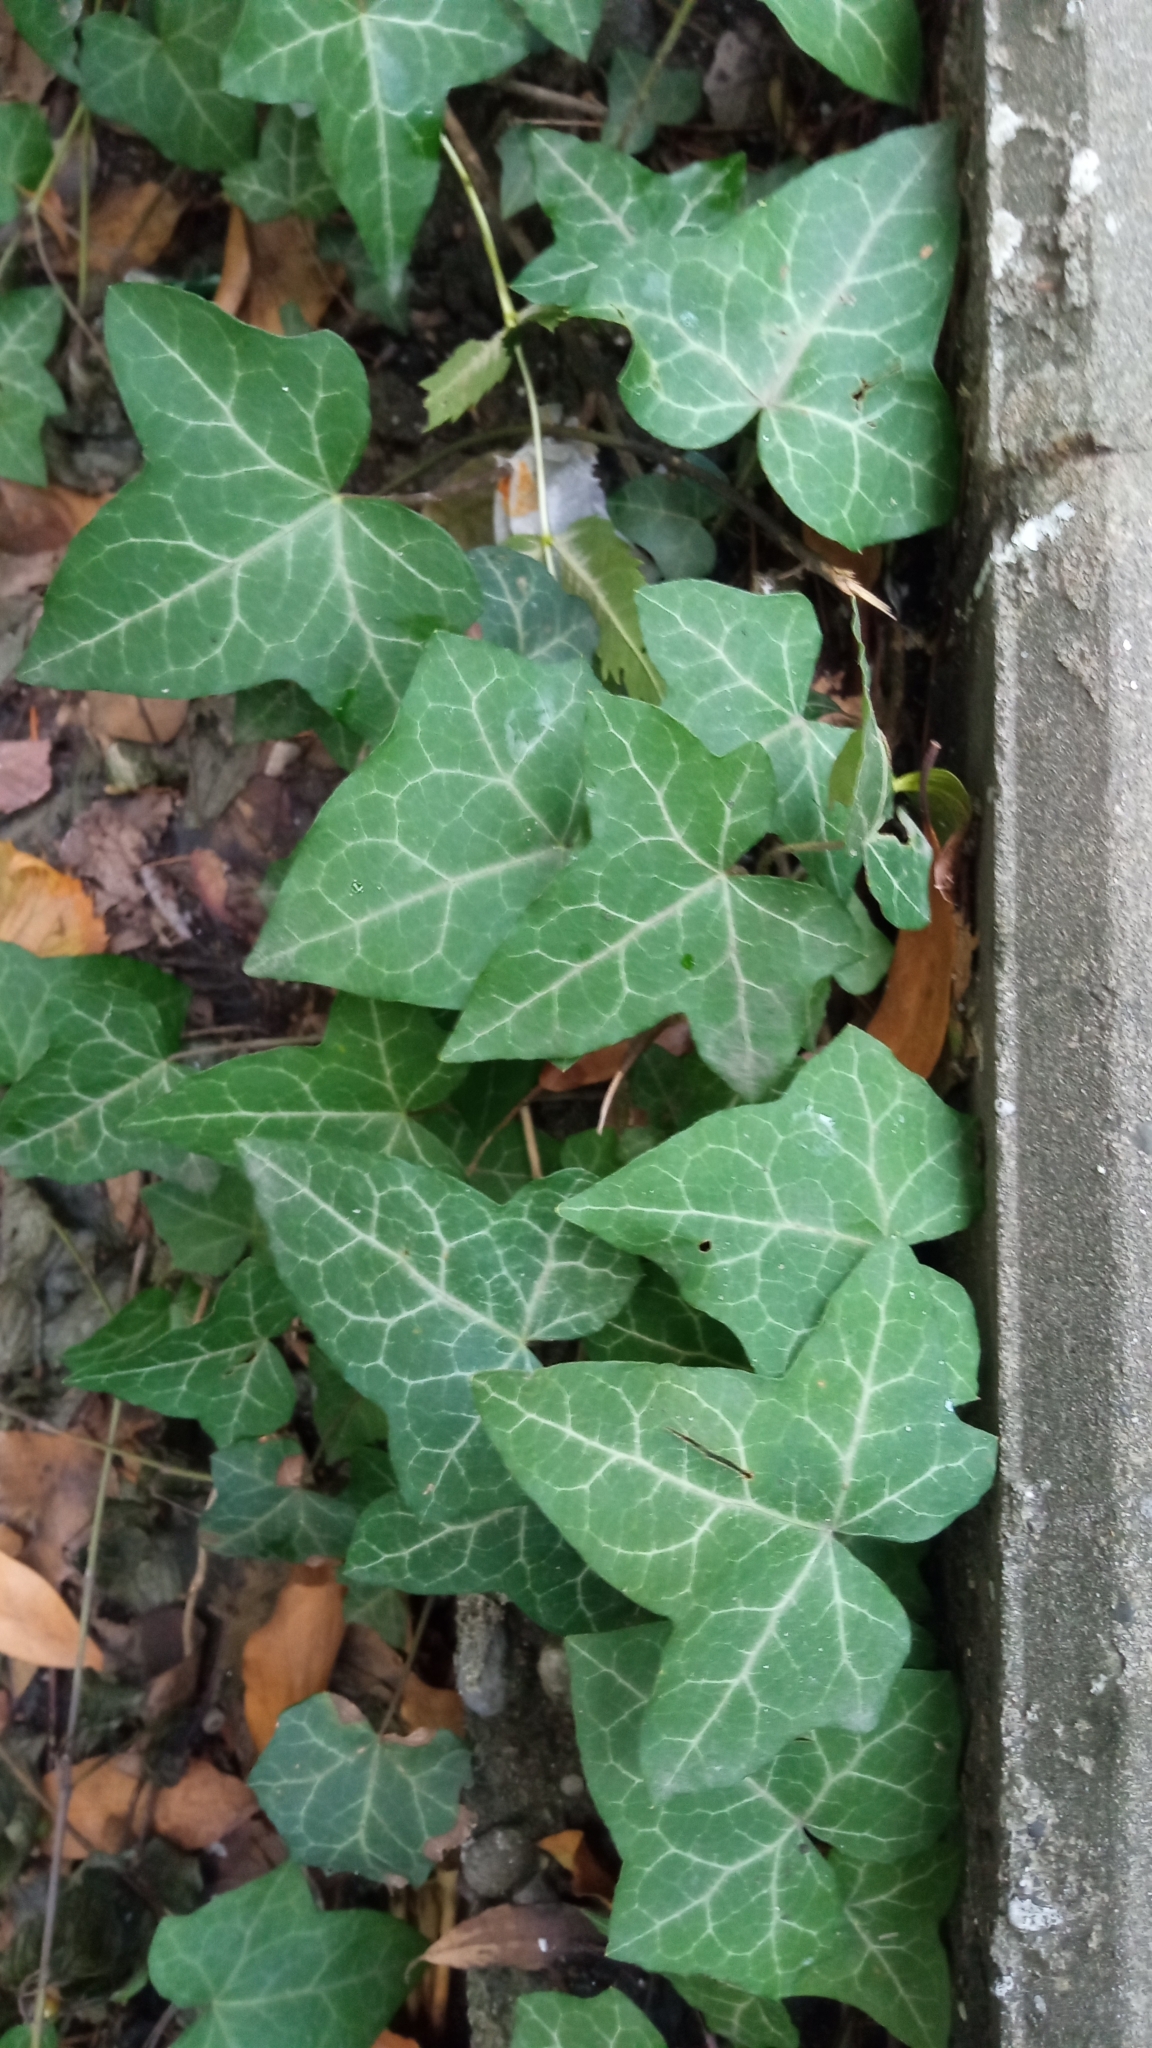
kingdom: Plantae
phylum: Tracheophyta
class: Magnoliopsida
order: Apiales
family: Araliaceae
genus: Hedera
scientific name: Hedera helix
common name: Ivy
